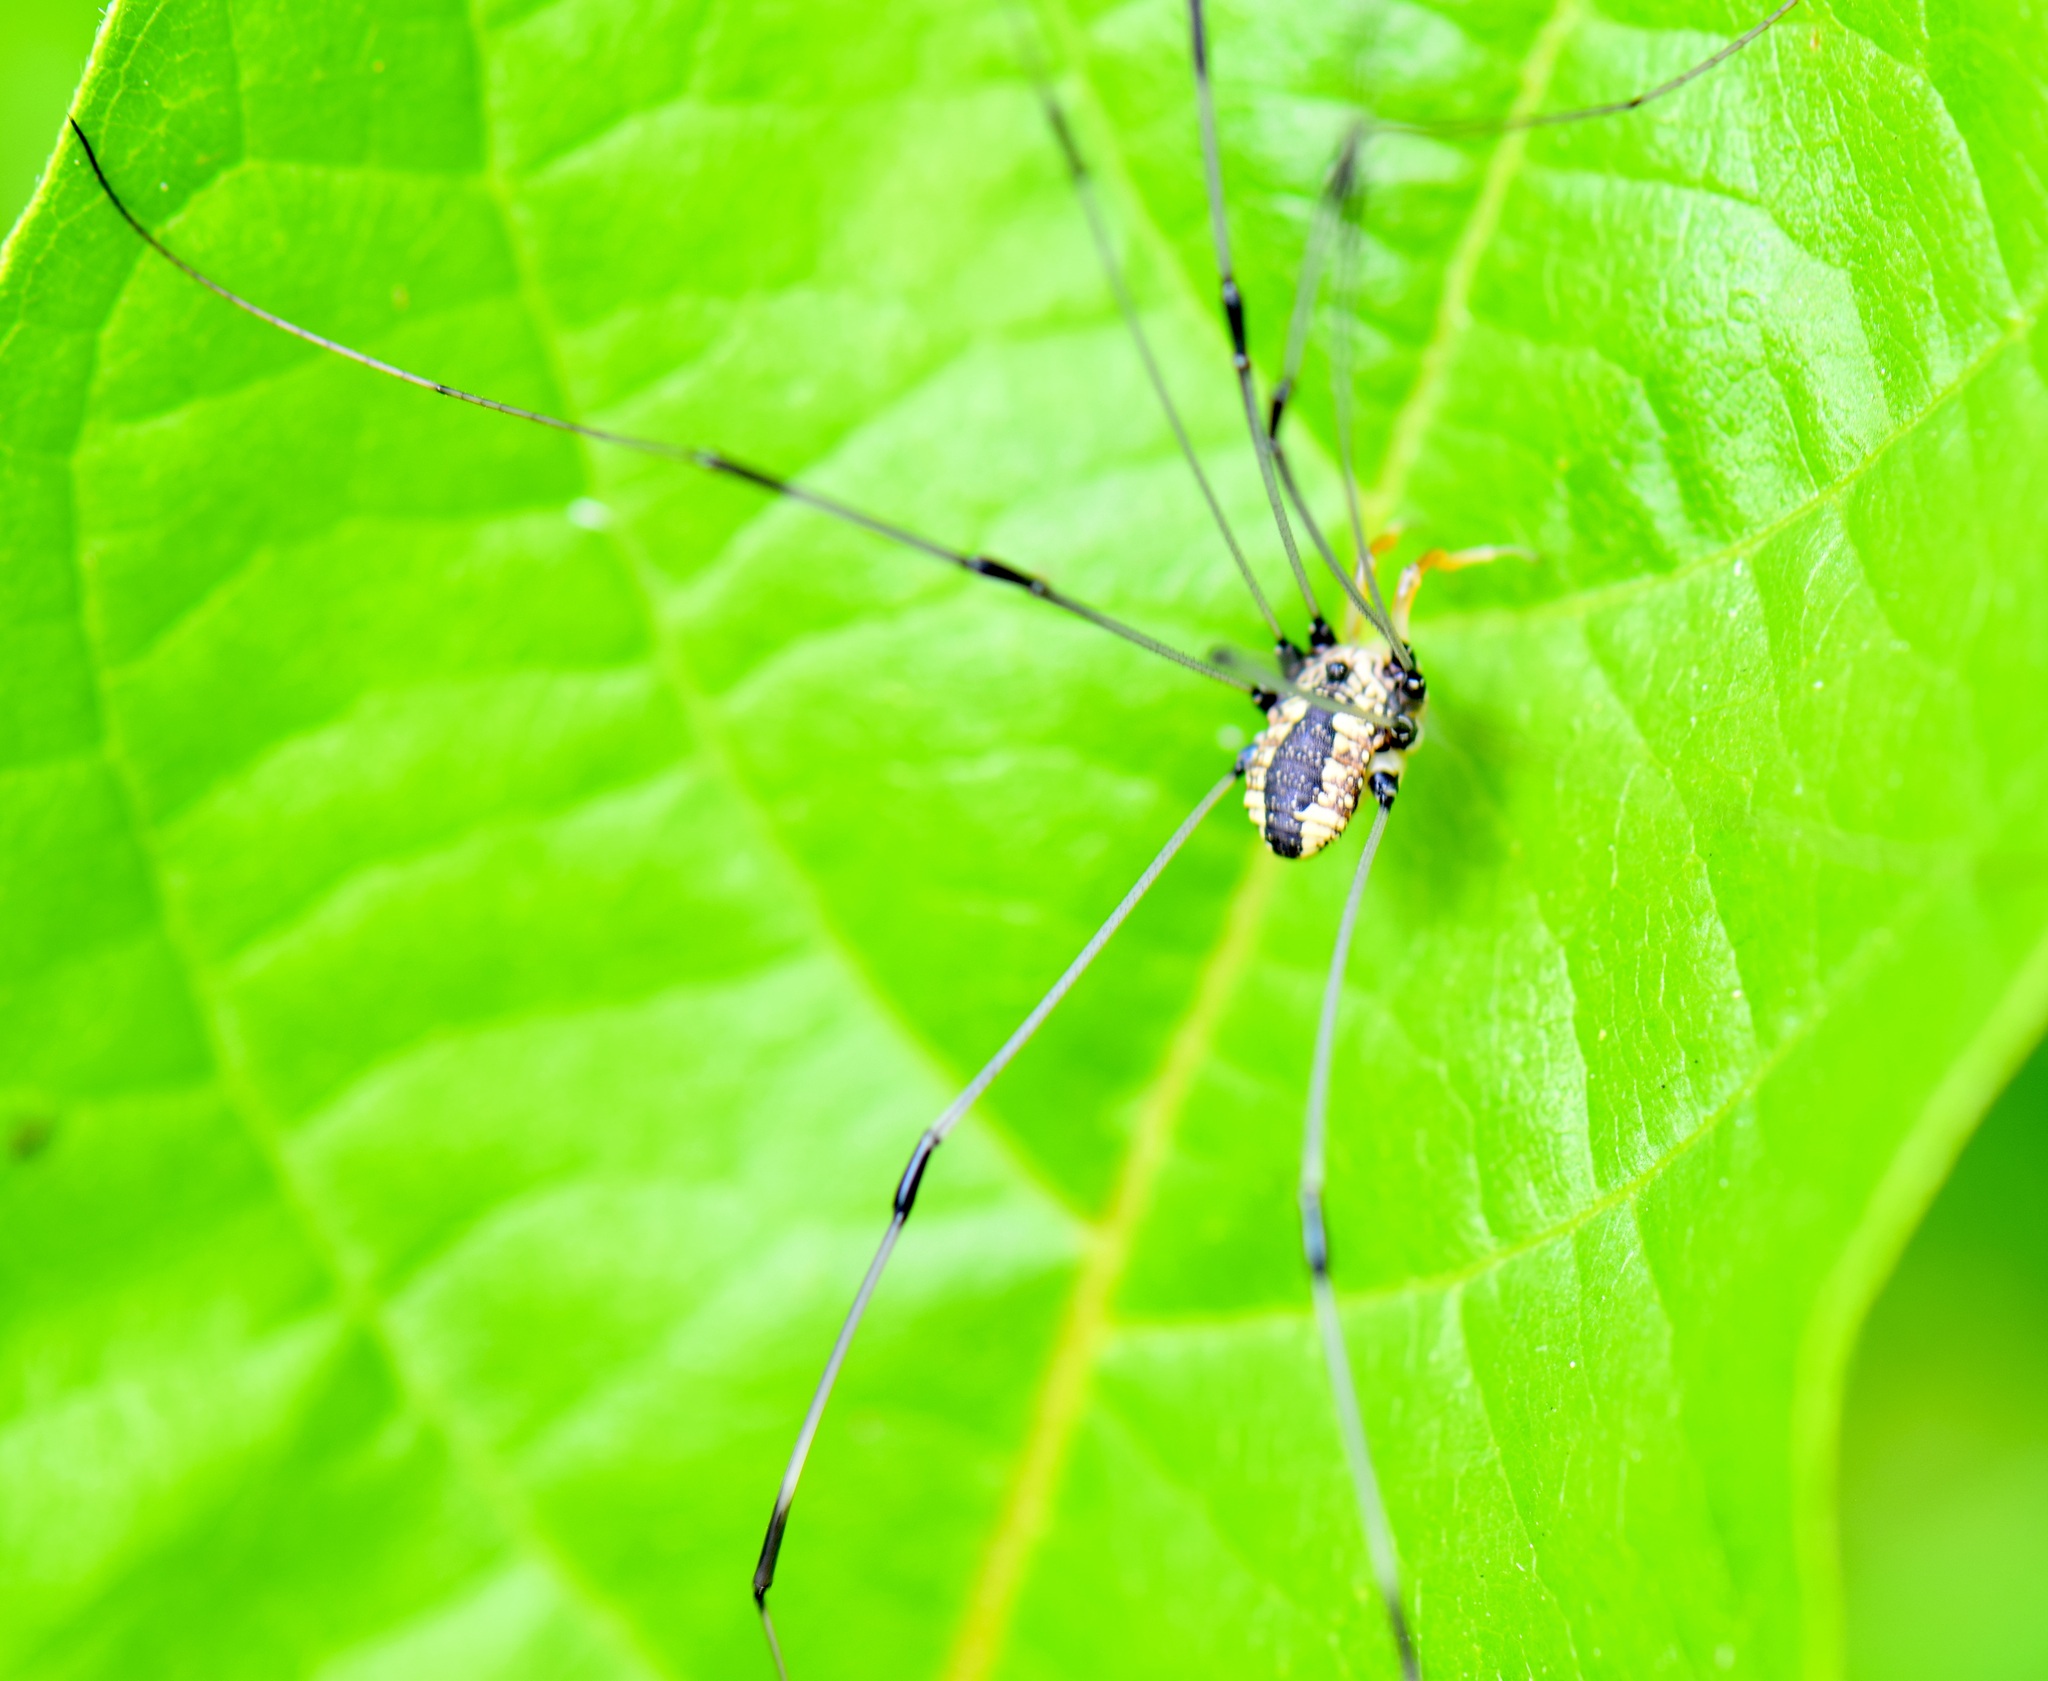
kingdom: Animalia
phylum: Arthropoda
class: Arachnida
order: Opiliones
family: Sclerosomatidae
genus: Leiobunum
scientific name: Leiobunum vittatum
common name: Eastern harvestman
